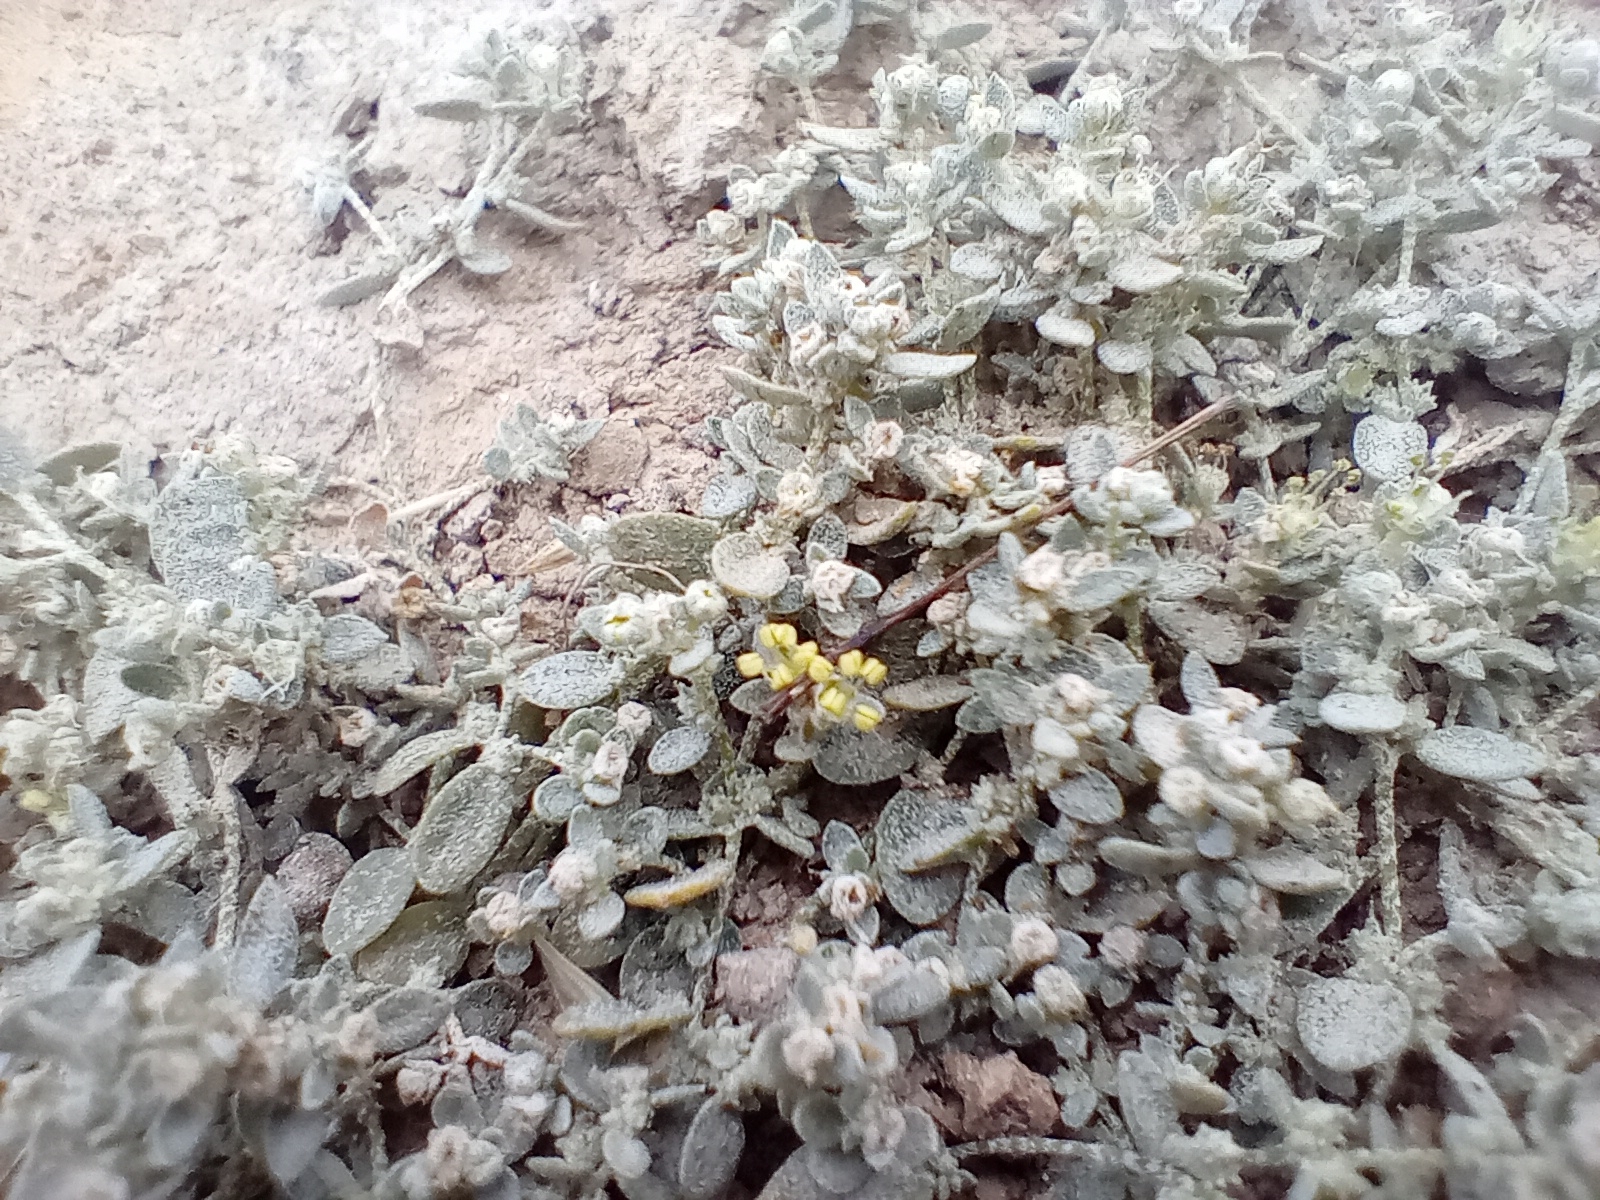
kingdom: Plantae
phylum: Tracheophyta
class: Magnoliopsida
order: Caryophyllales
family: Amaranthaceae
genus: Atriplex
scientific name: Atriplex buchananii
